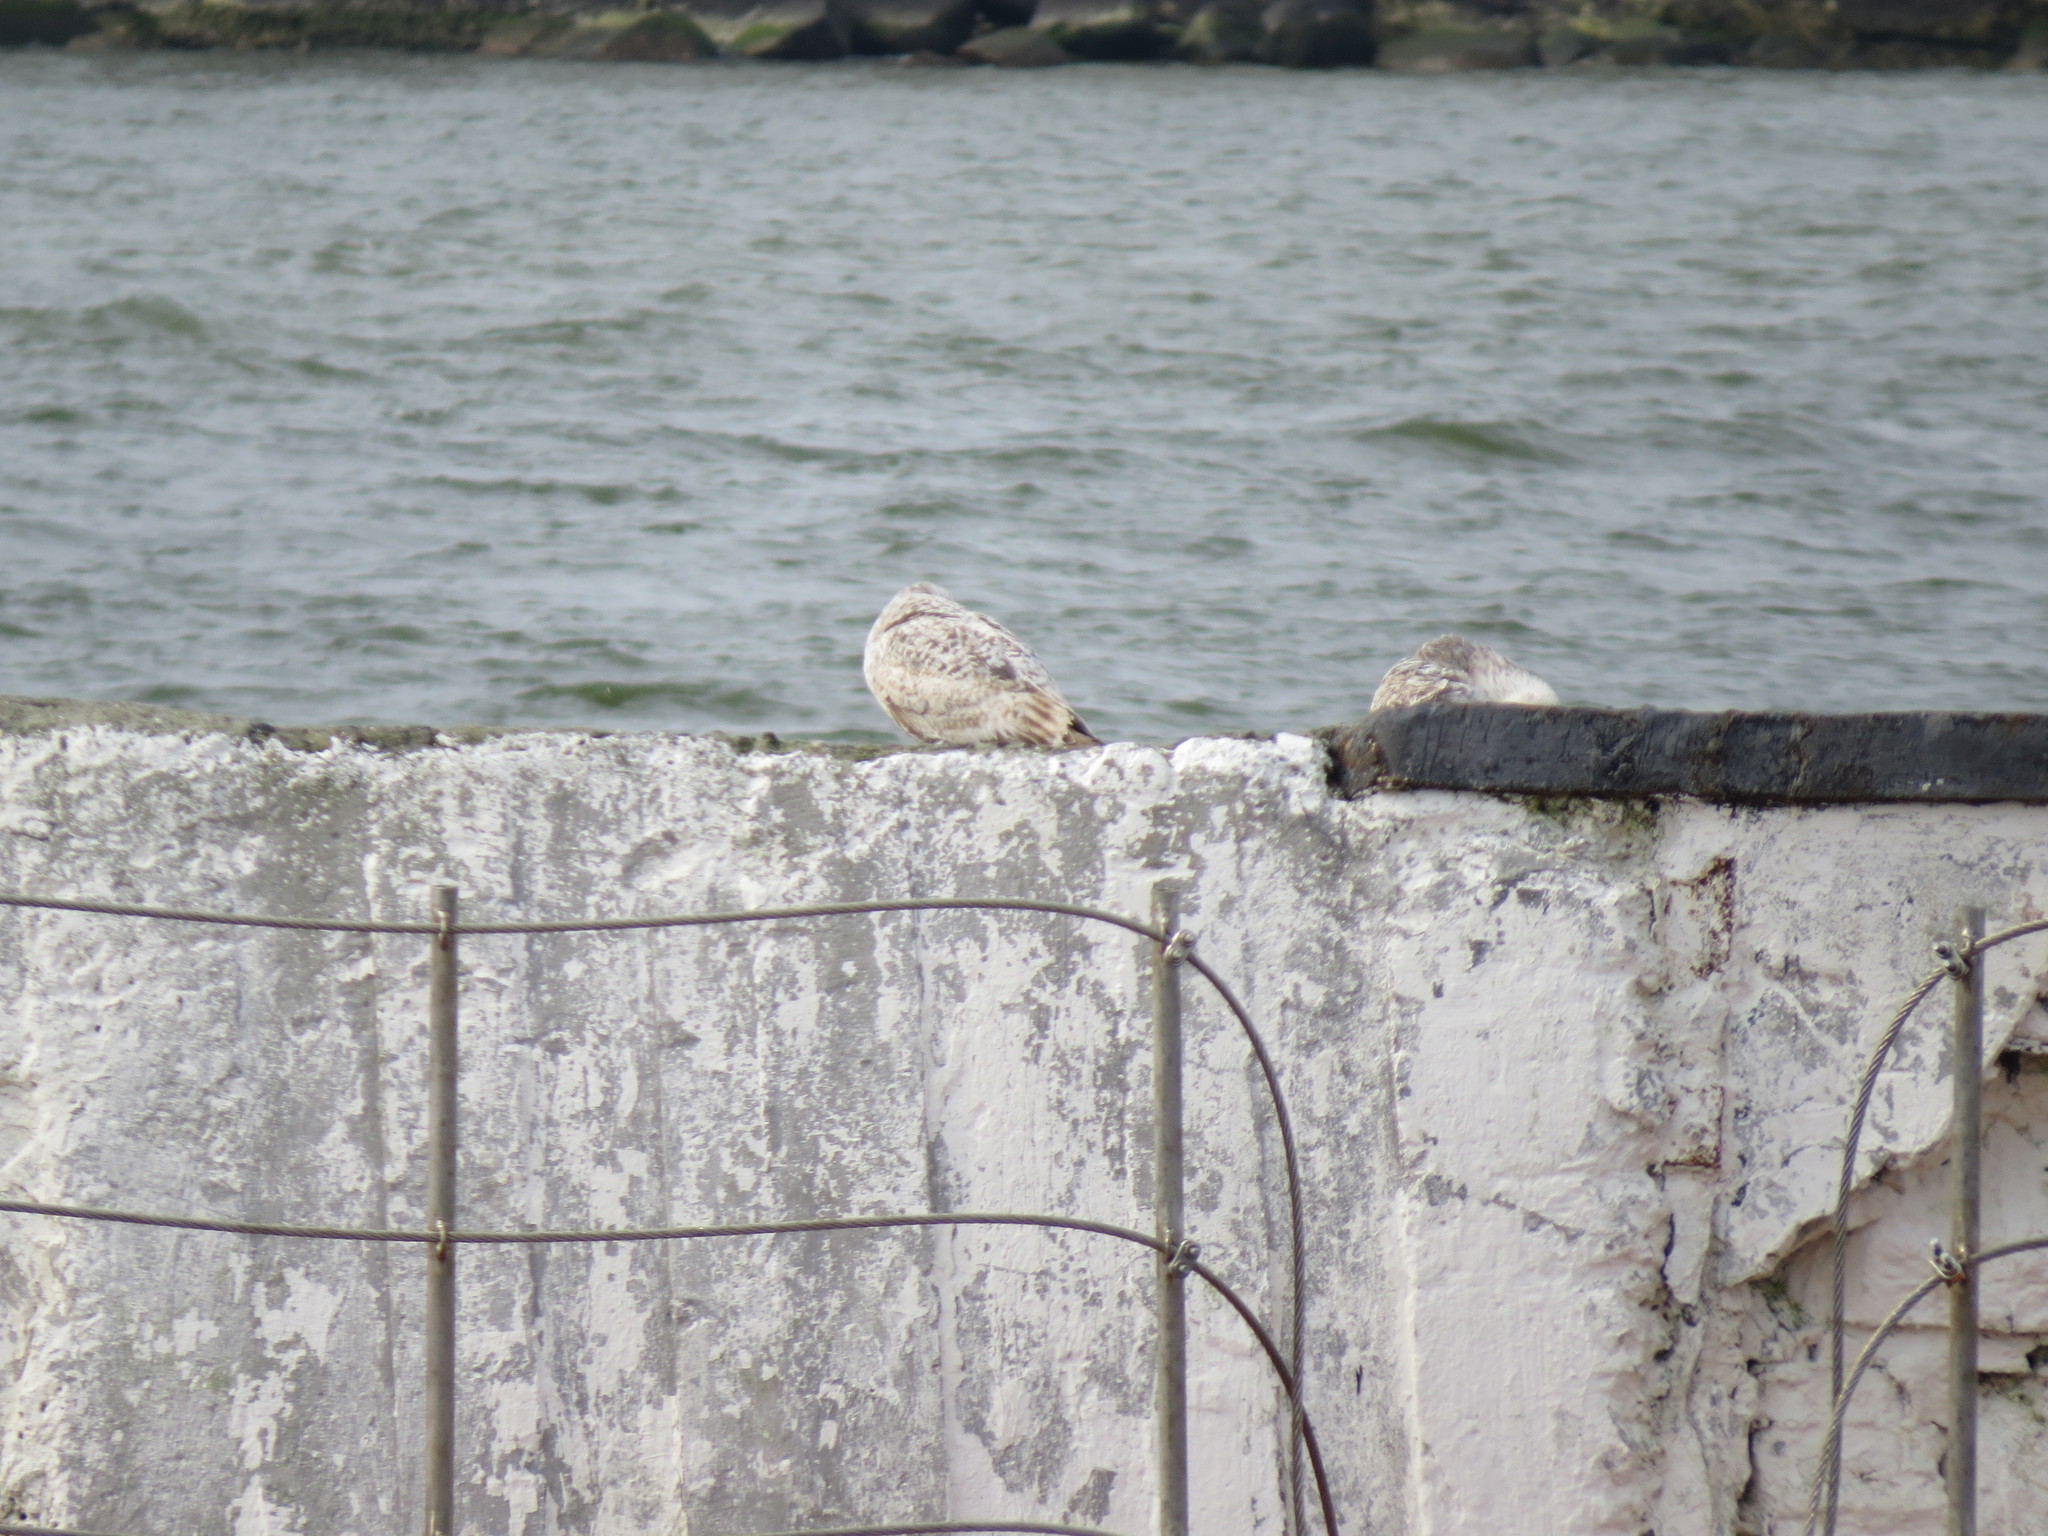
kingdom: Animalia
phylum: Chordata
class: Aves
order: Charadriiformes
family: Laridae
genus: Larus
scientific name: Larus canus
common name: Mew gull
